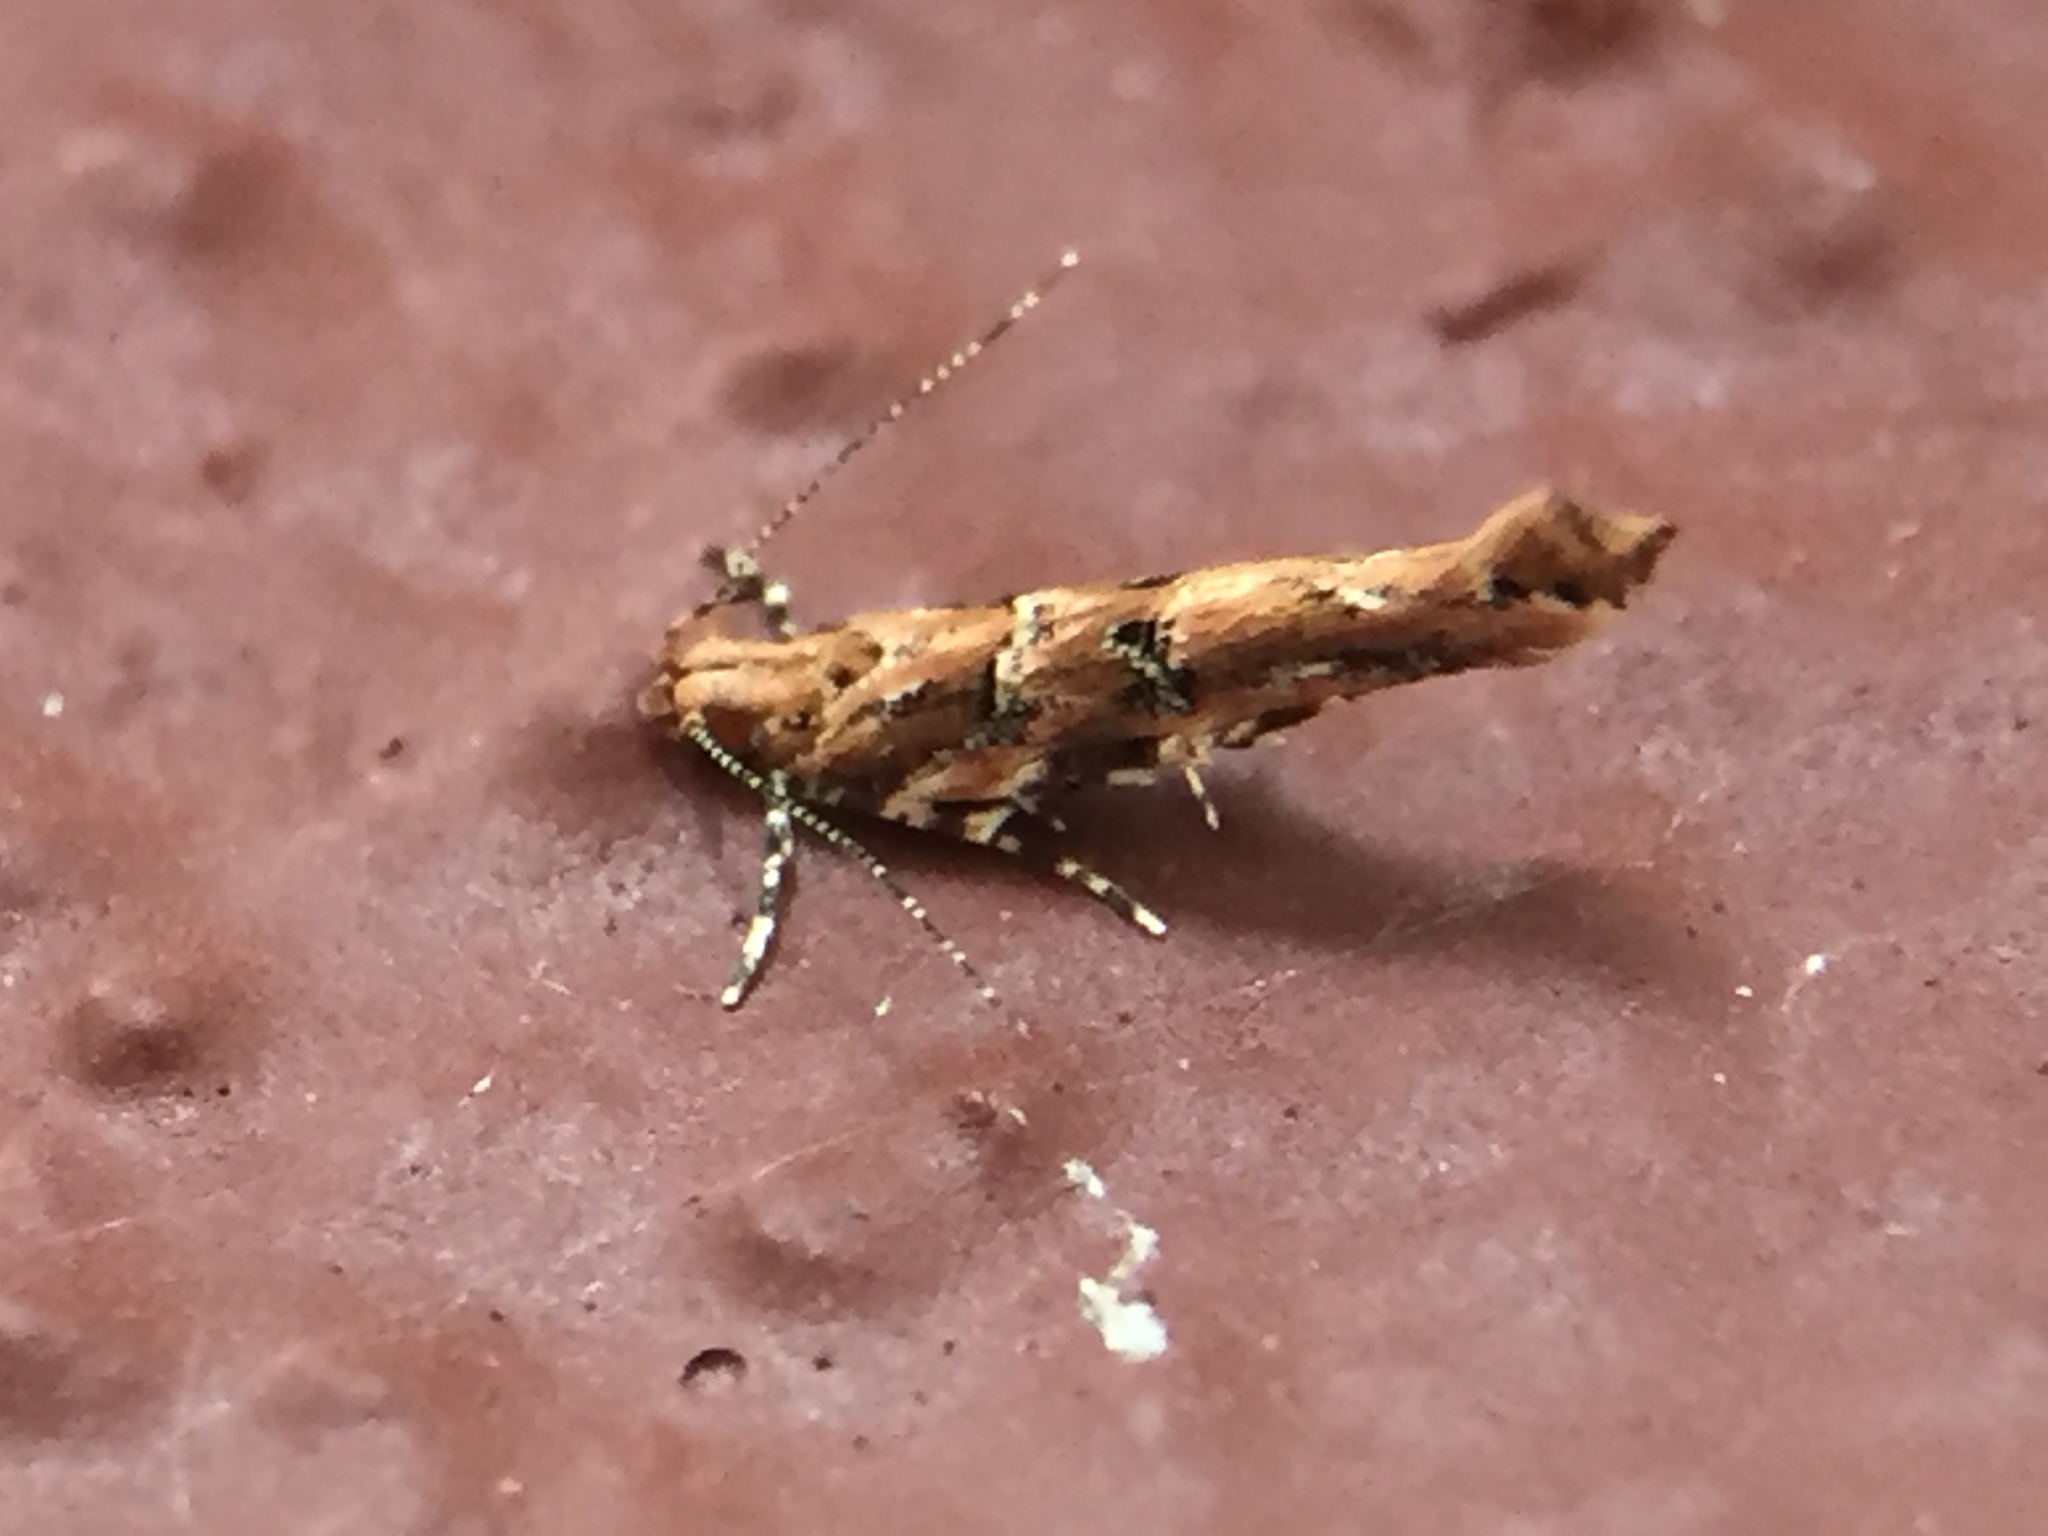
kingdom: Animalia
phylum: Arthropoda
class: Insecta
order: Lepidoptera
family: Cosmopterigidae
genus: Pyroderces
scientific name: Pyroderces aellotricha
